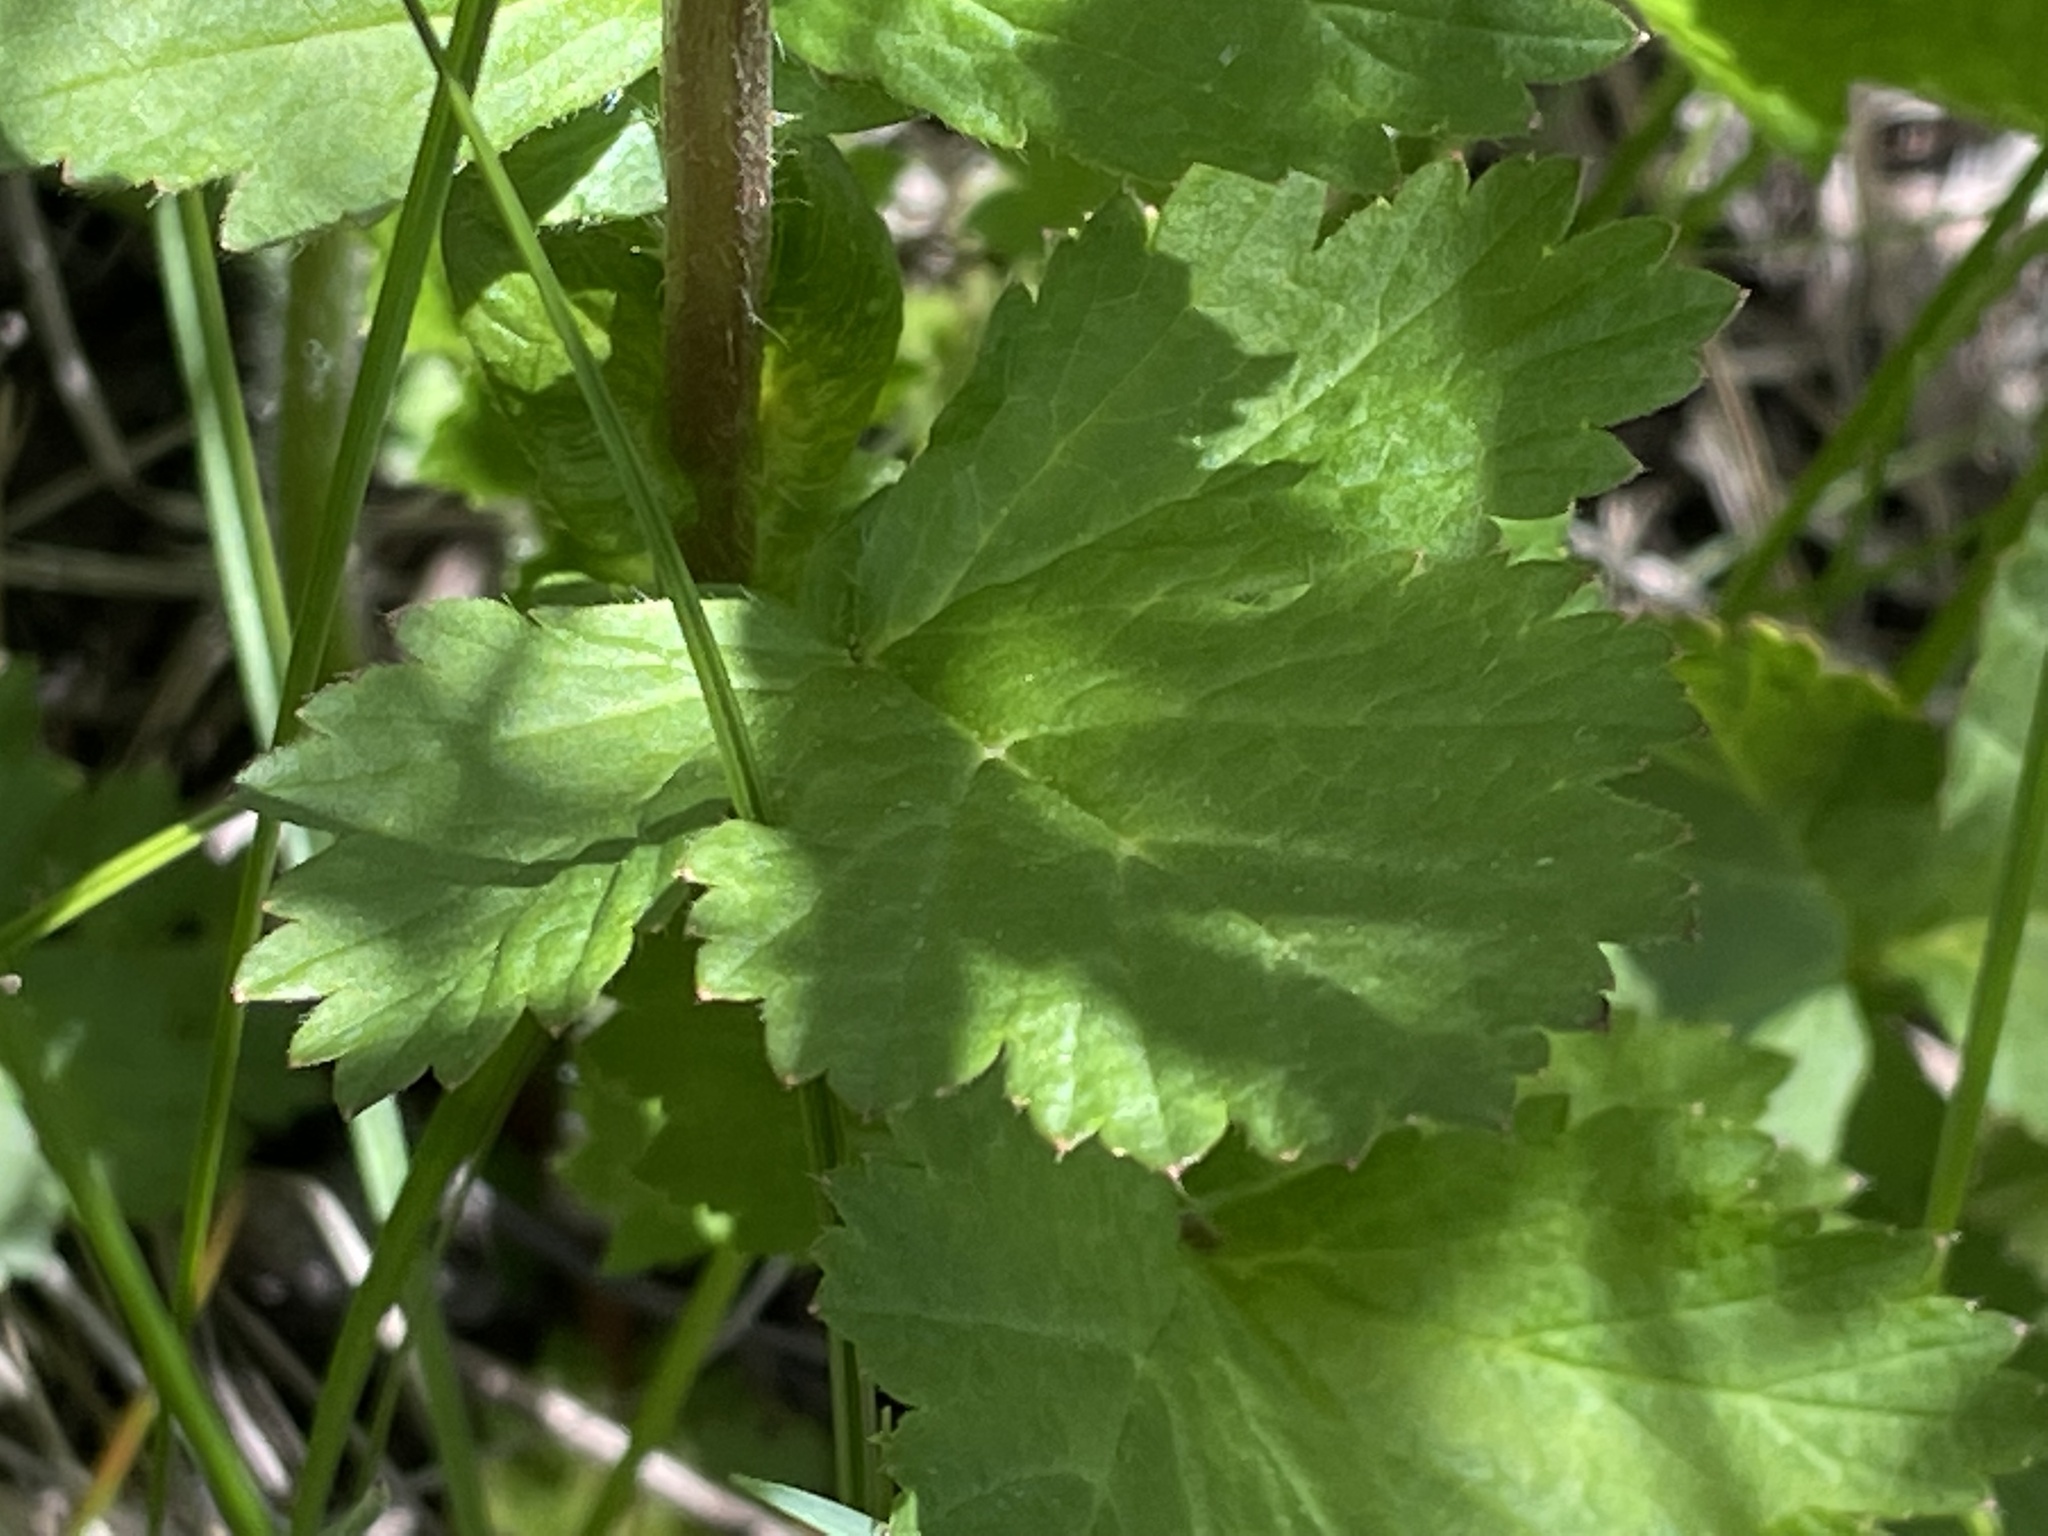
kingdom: Plantae
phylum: Tracheophyta
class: Magnoliopsida
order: Rosales
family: Rosaceae
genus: Geum
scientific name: Geum macrophyllum
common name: Large-leaved avens
